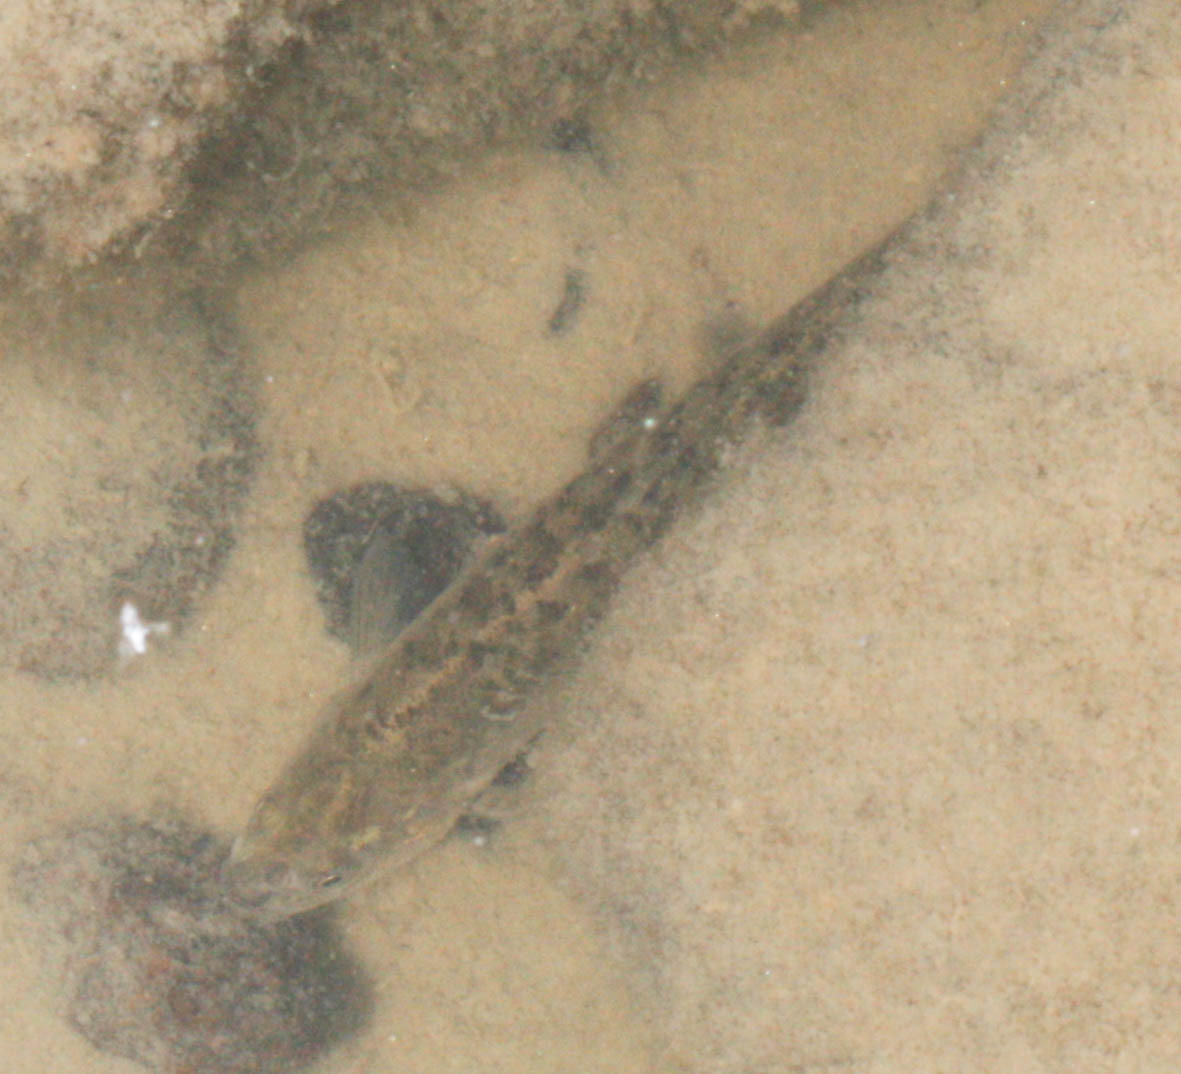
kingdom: Animalia
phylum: Chordata
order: Cypriniformes
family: Cyprinidae
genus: Rhinichthys
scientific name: Rhinichthys osculus
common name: Speckled dace
